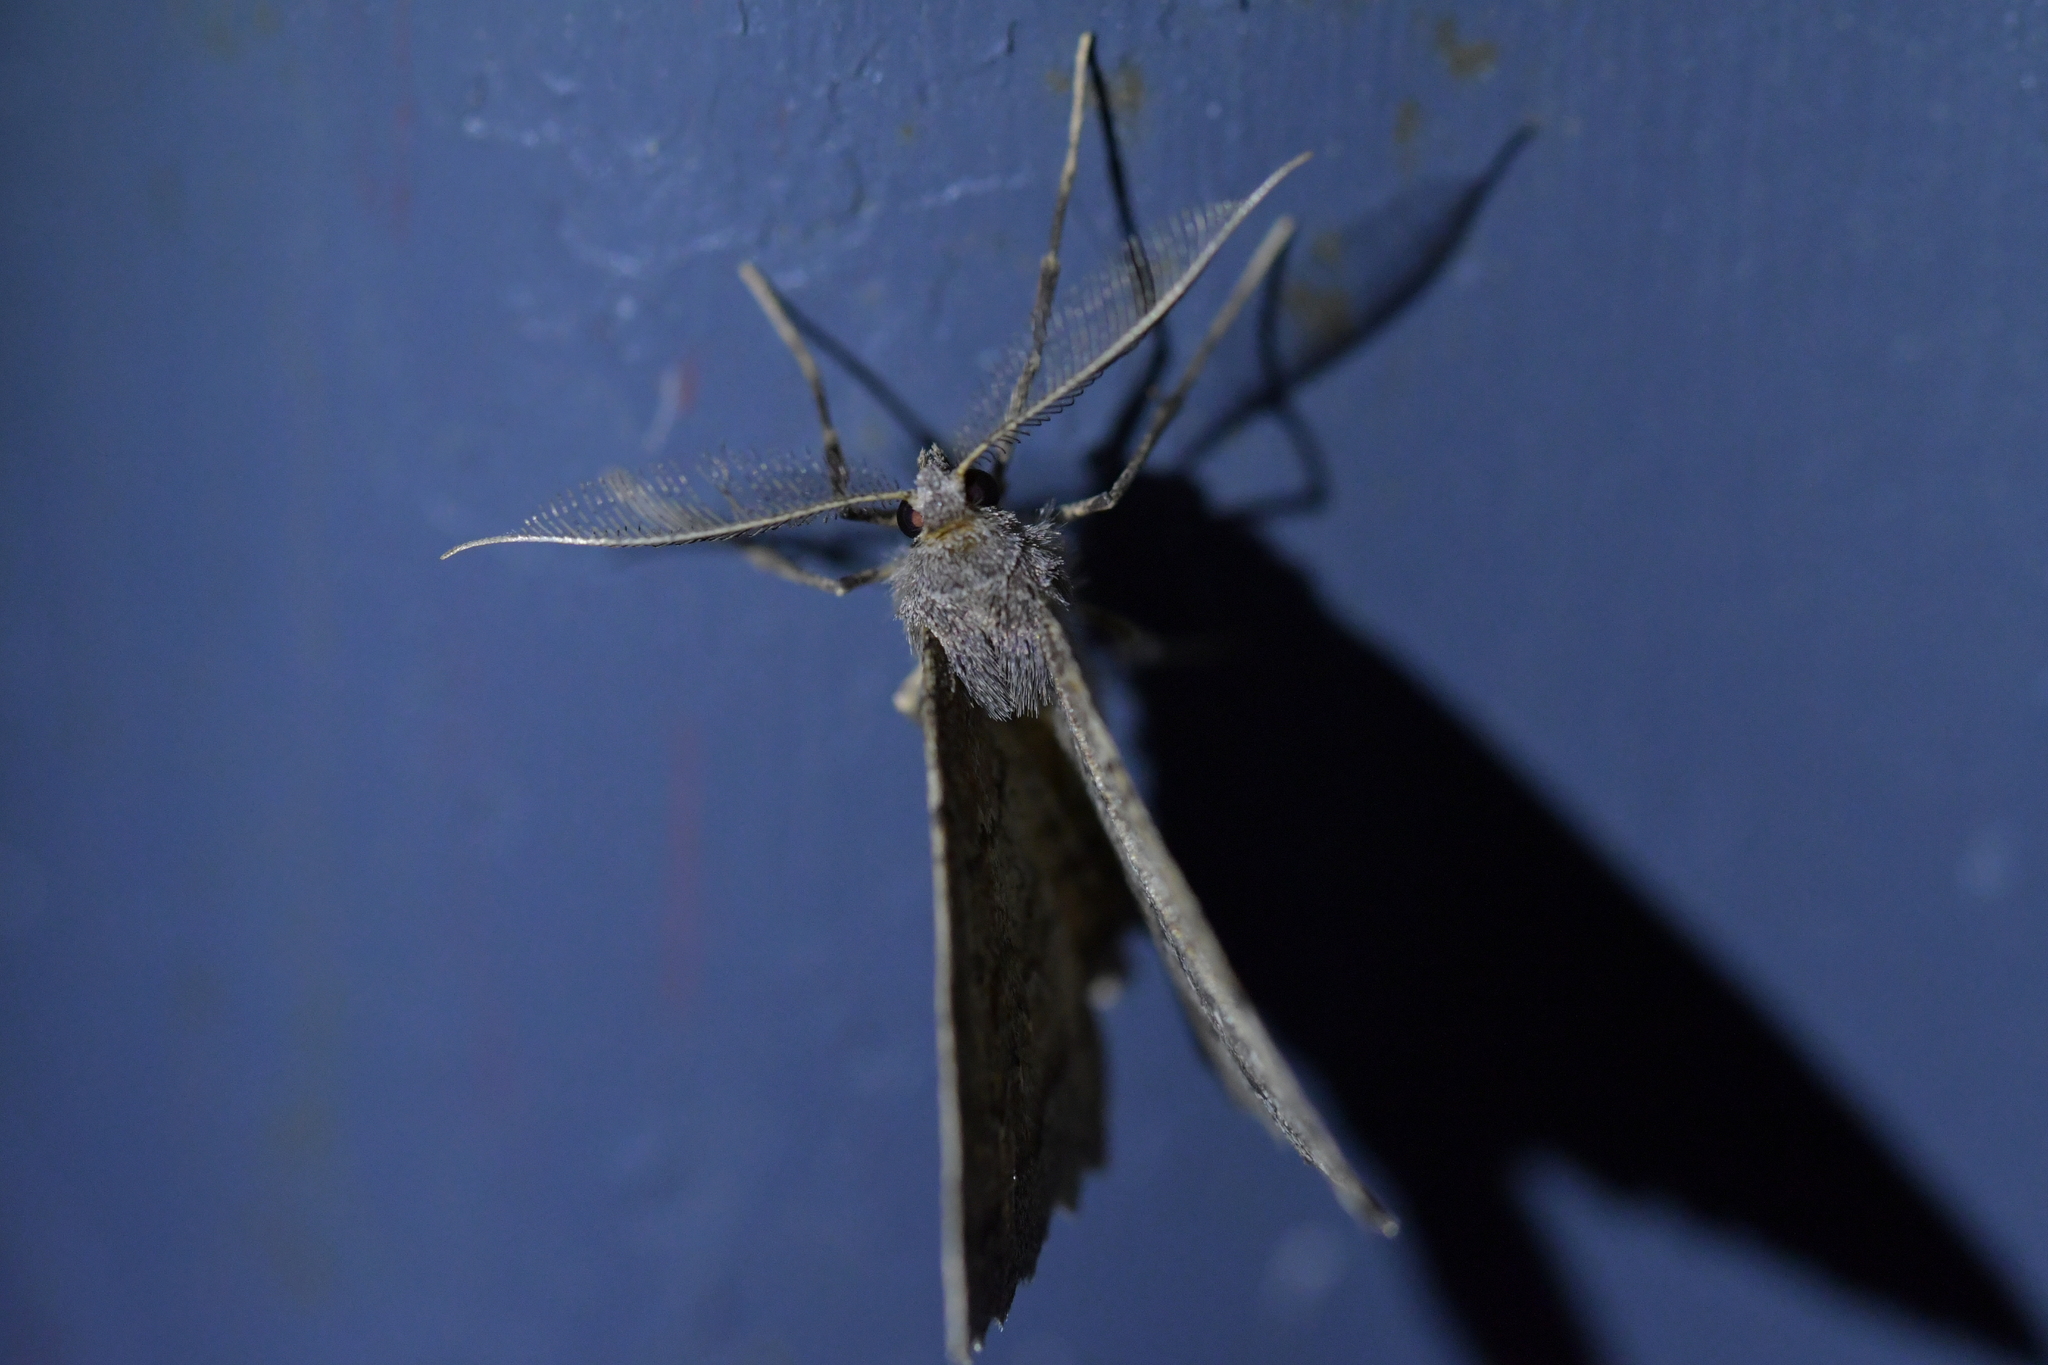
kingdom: Animalia
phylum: Arthropoda
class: Insecta
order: Lepidoptera
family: Geometridae
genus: Cleora
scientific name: Cleora scriptaria
